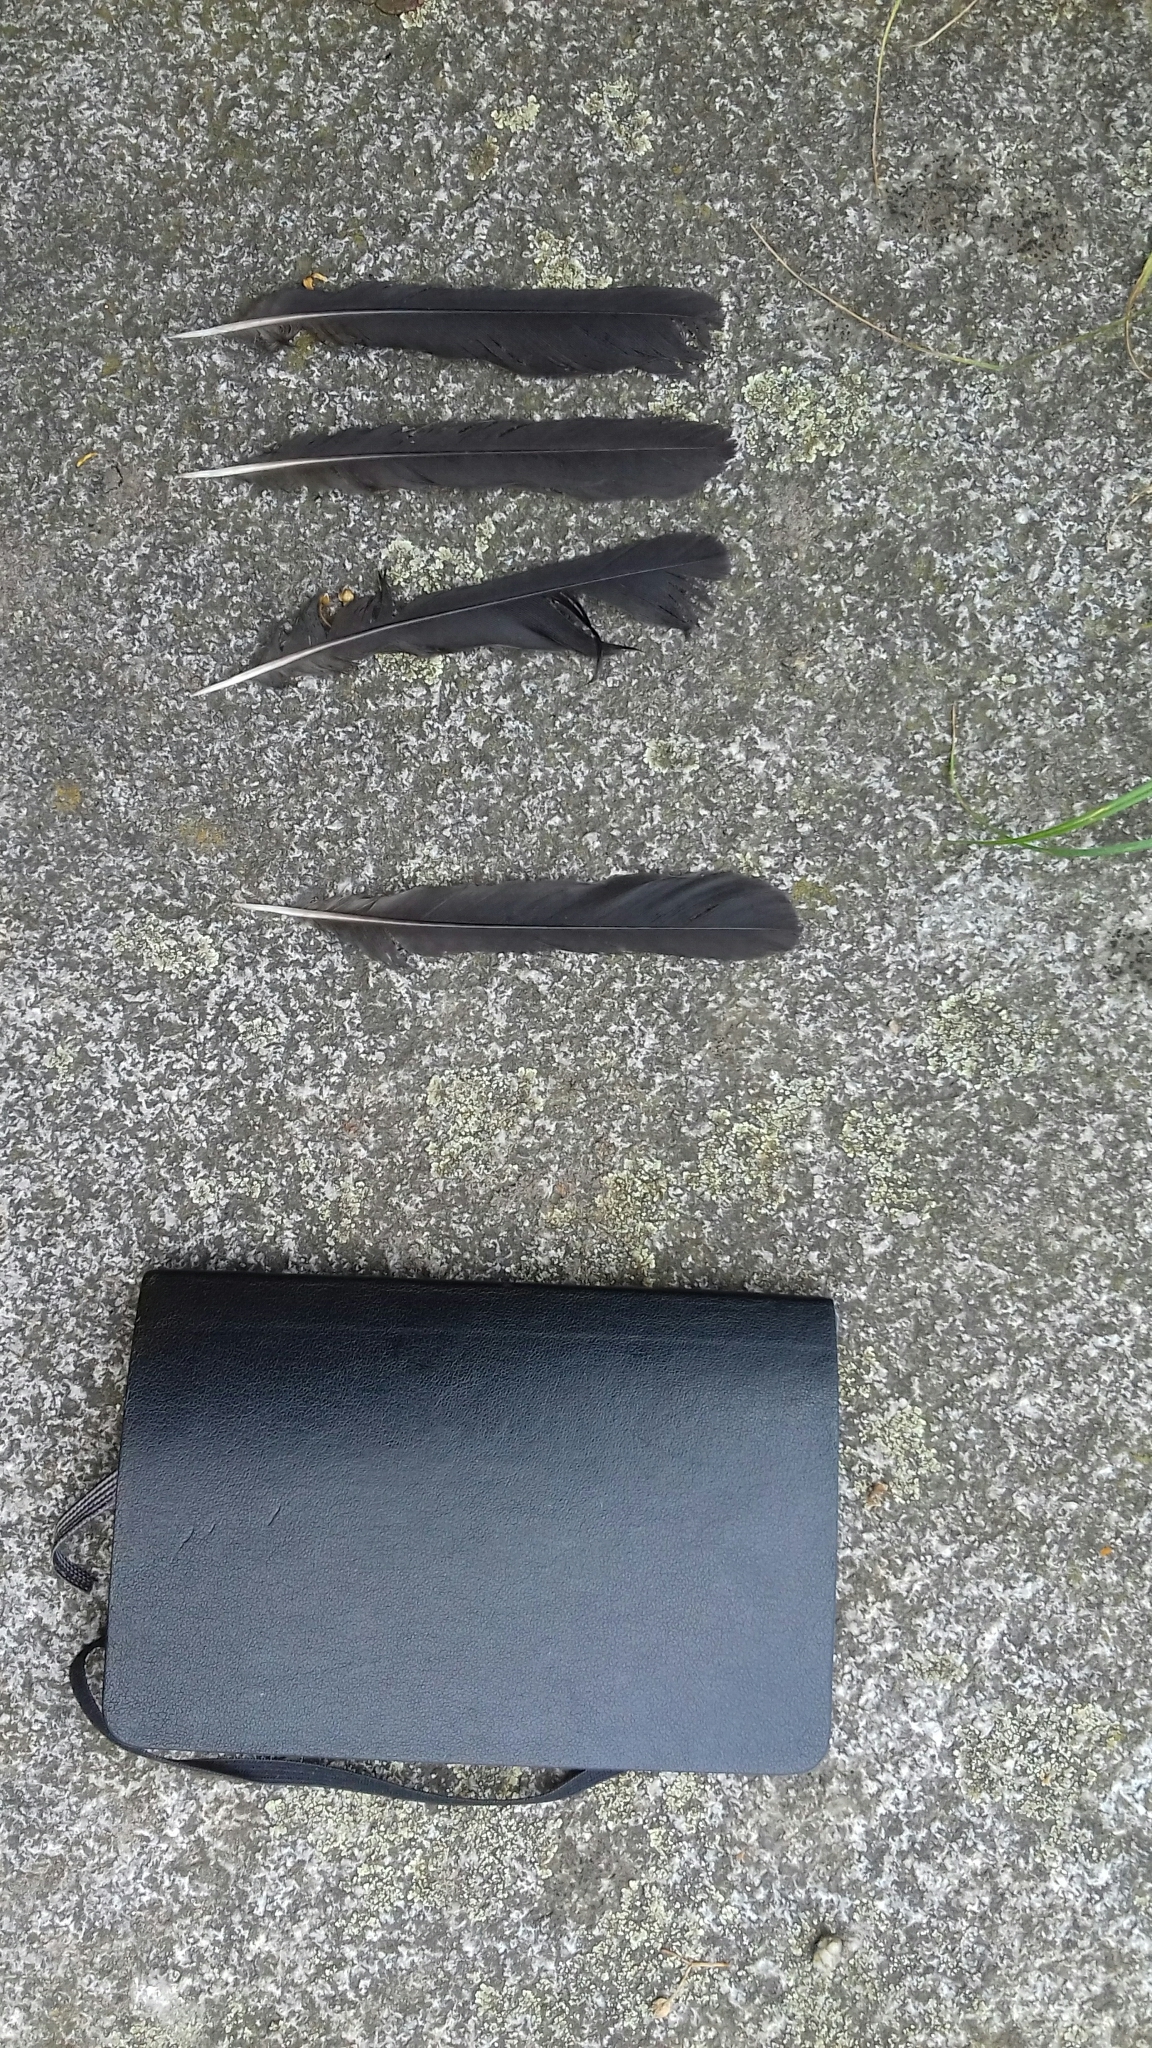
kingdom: Animalia
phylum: Chordata
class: Aves
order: Passeriformes
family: Turdidae
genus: Turdus
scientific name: Turdus merula
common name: Common blackbird
